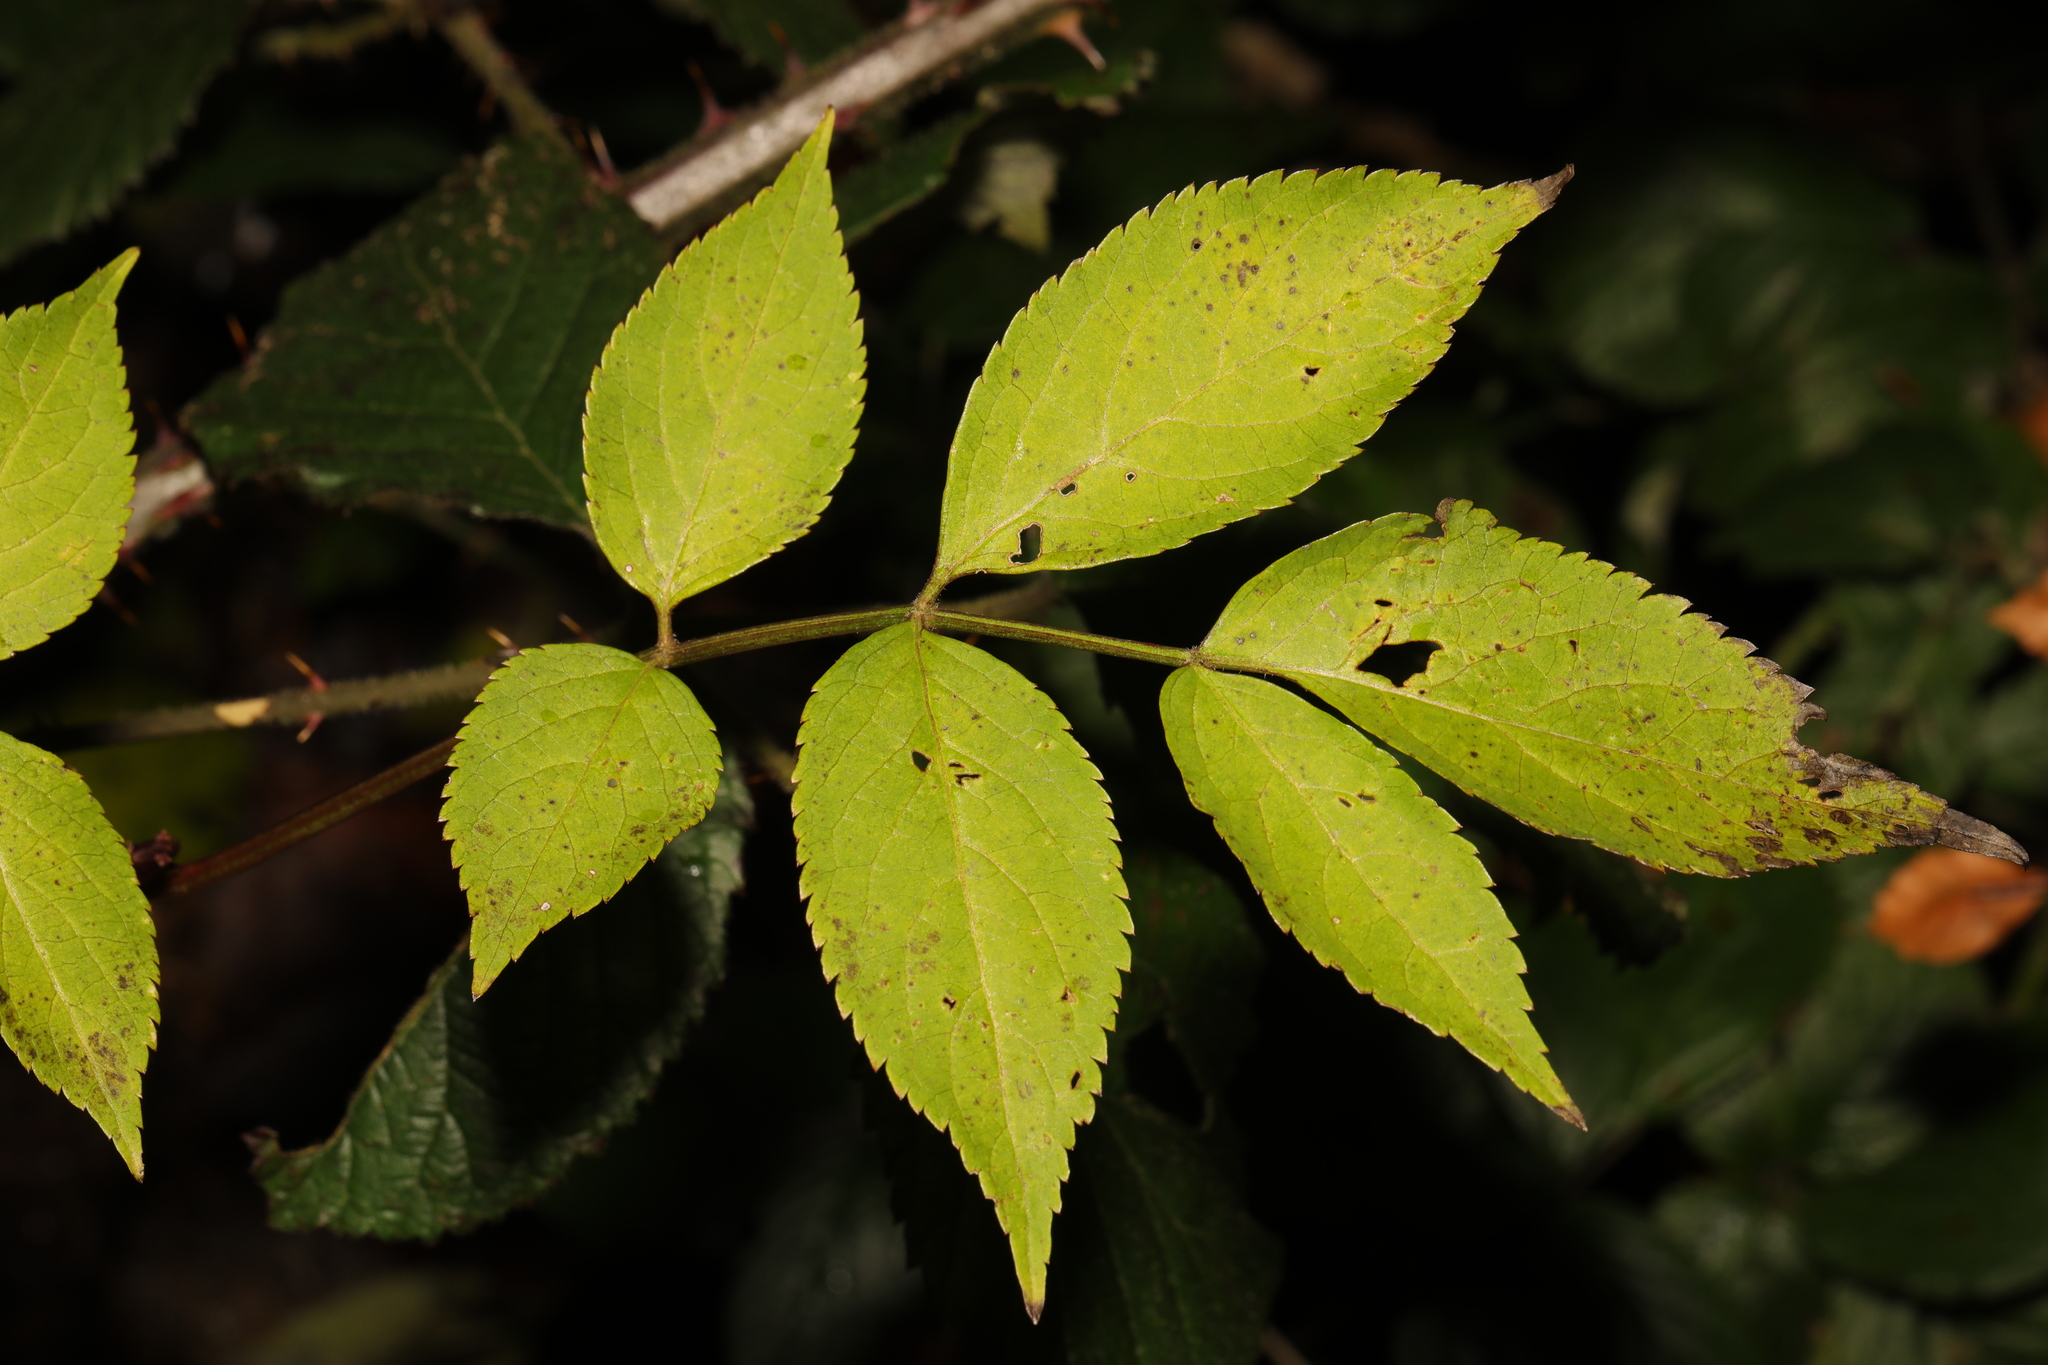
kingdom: Plantae
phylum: Tracheophyta
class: Magnoliopsida
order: Dipsacales
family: Viburnaceae
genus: Sambucus
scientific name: Sambucus nigra
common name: Elder
